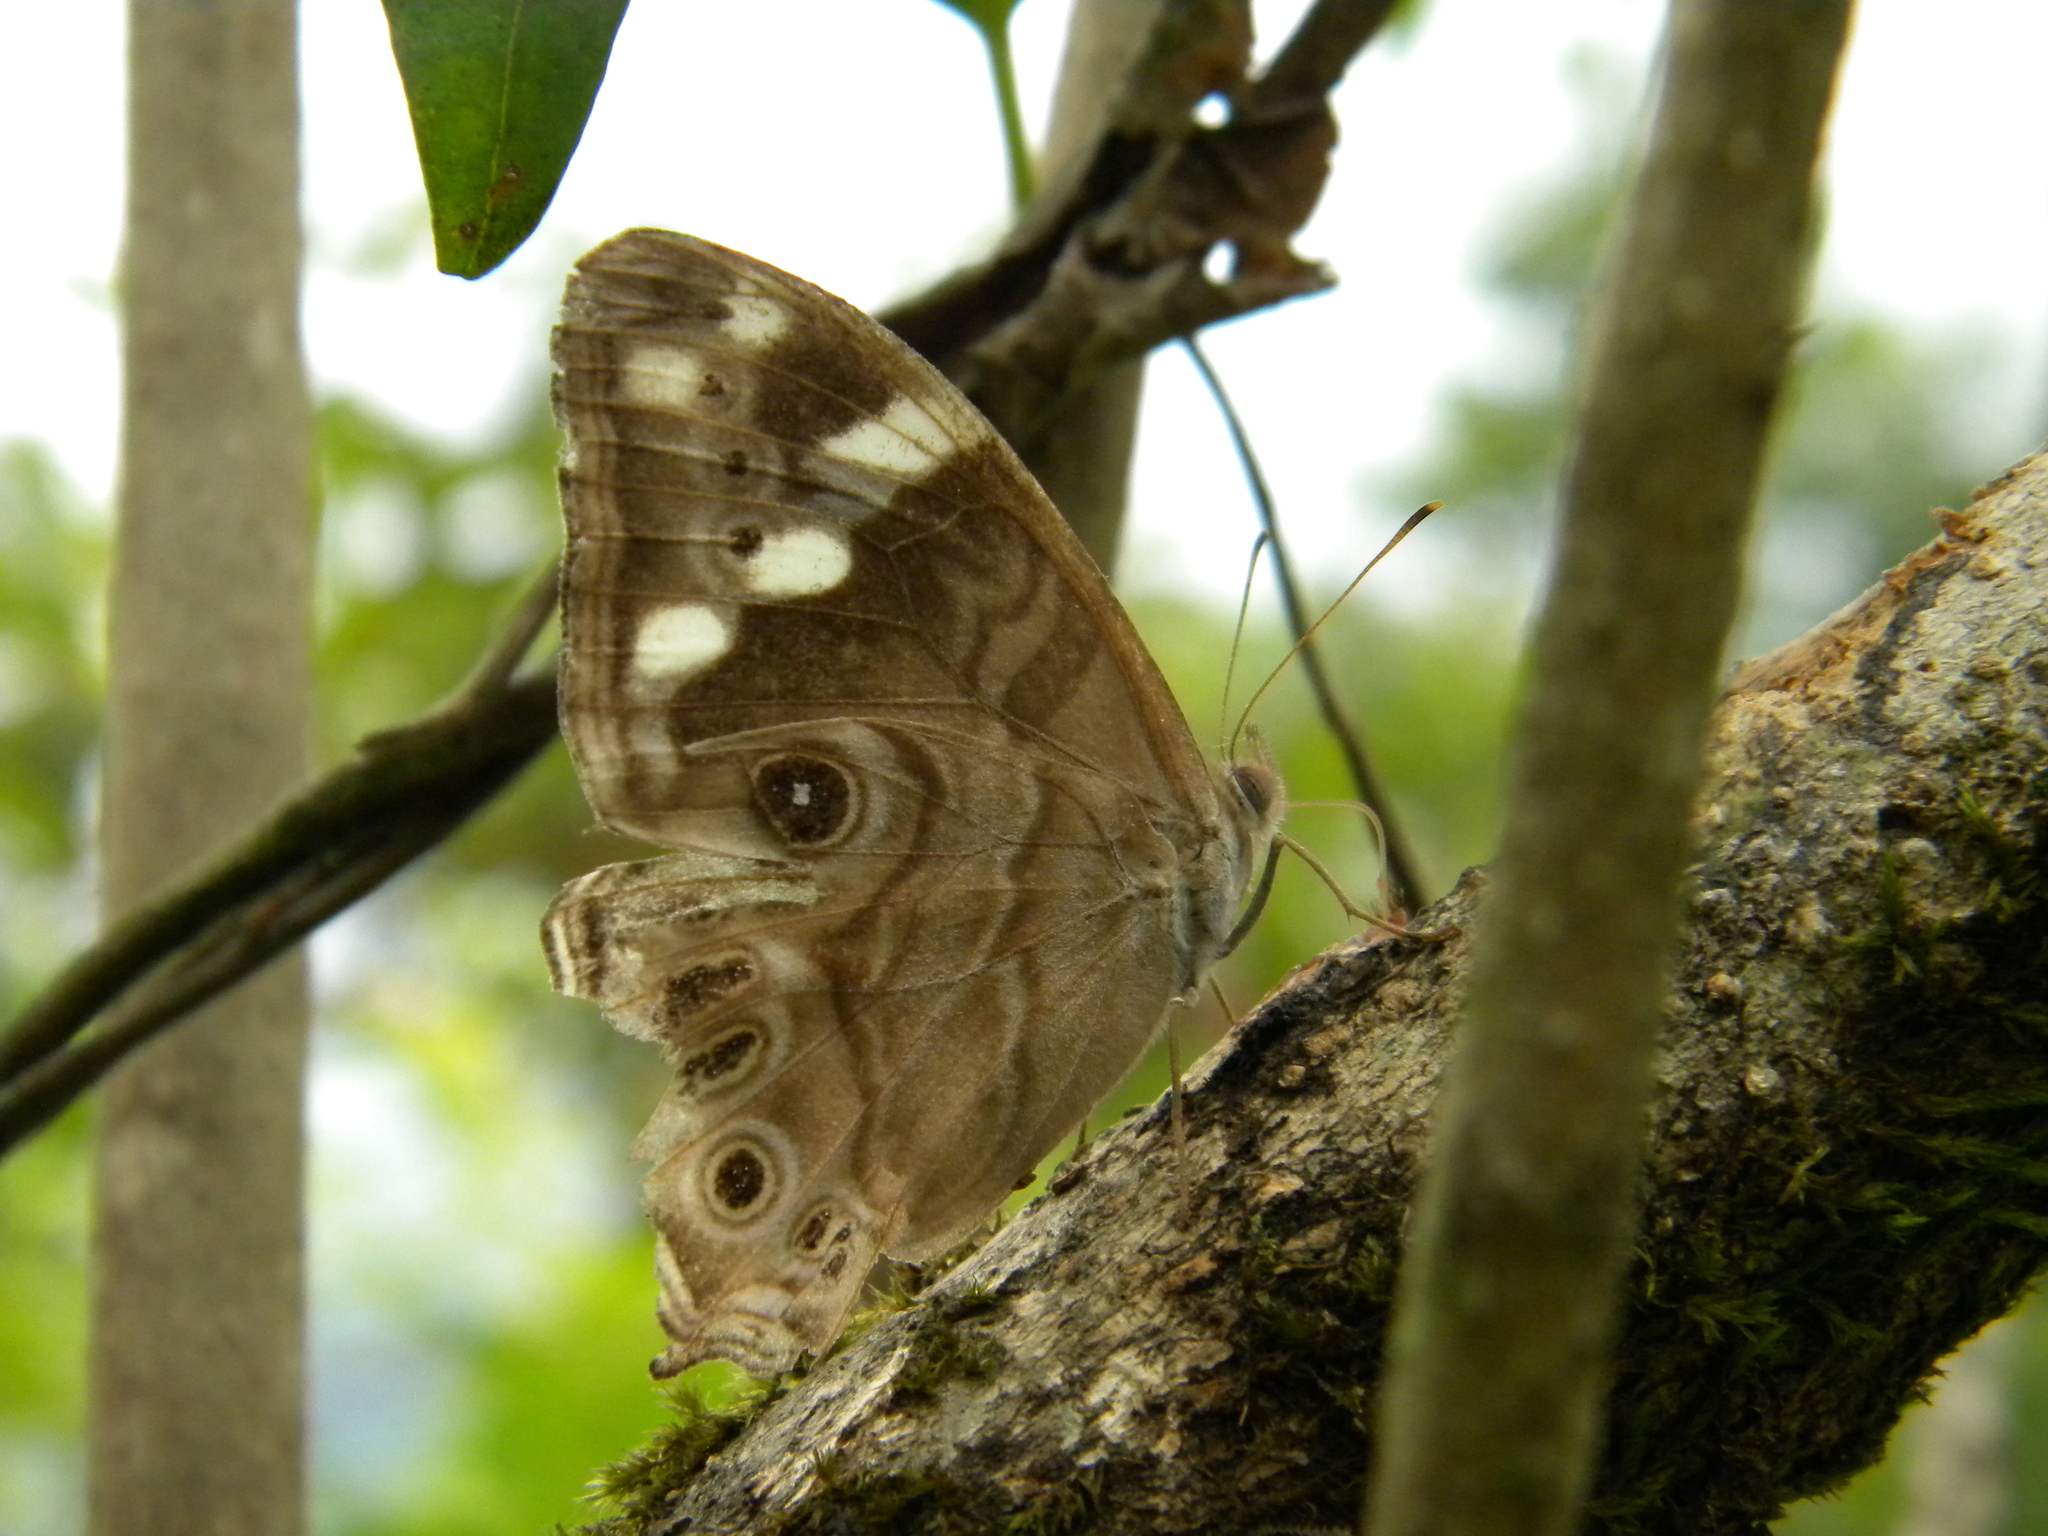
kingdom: Animalia
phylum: Arthropoda
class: Insecta
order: Lepidoptera
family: Nymphalidae
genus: Lethe
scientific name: Lethe rohria
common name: Common treebrown
